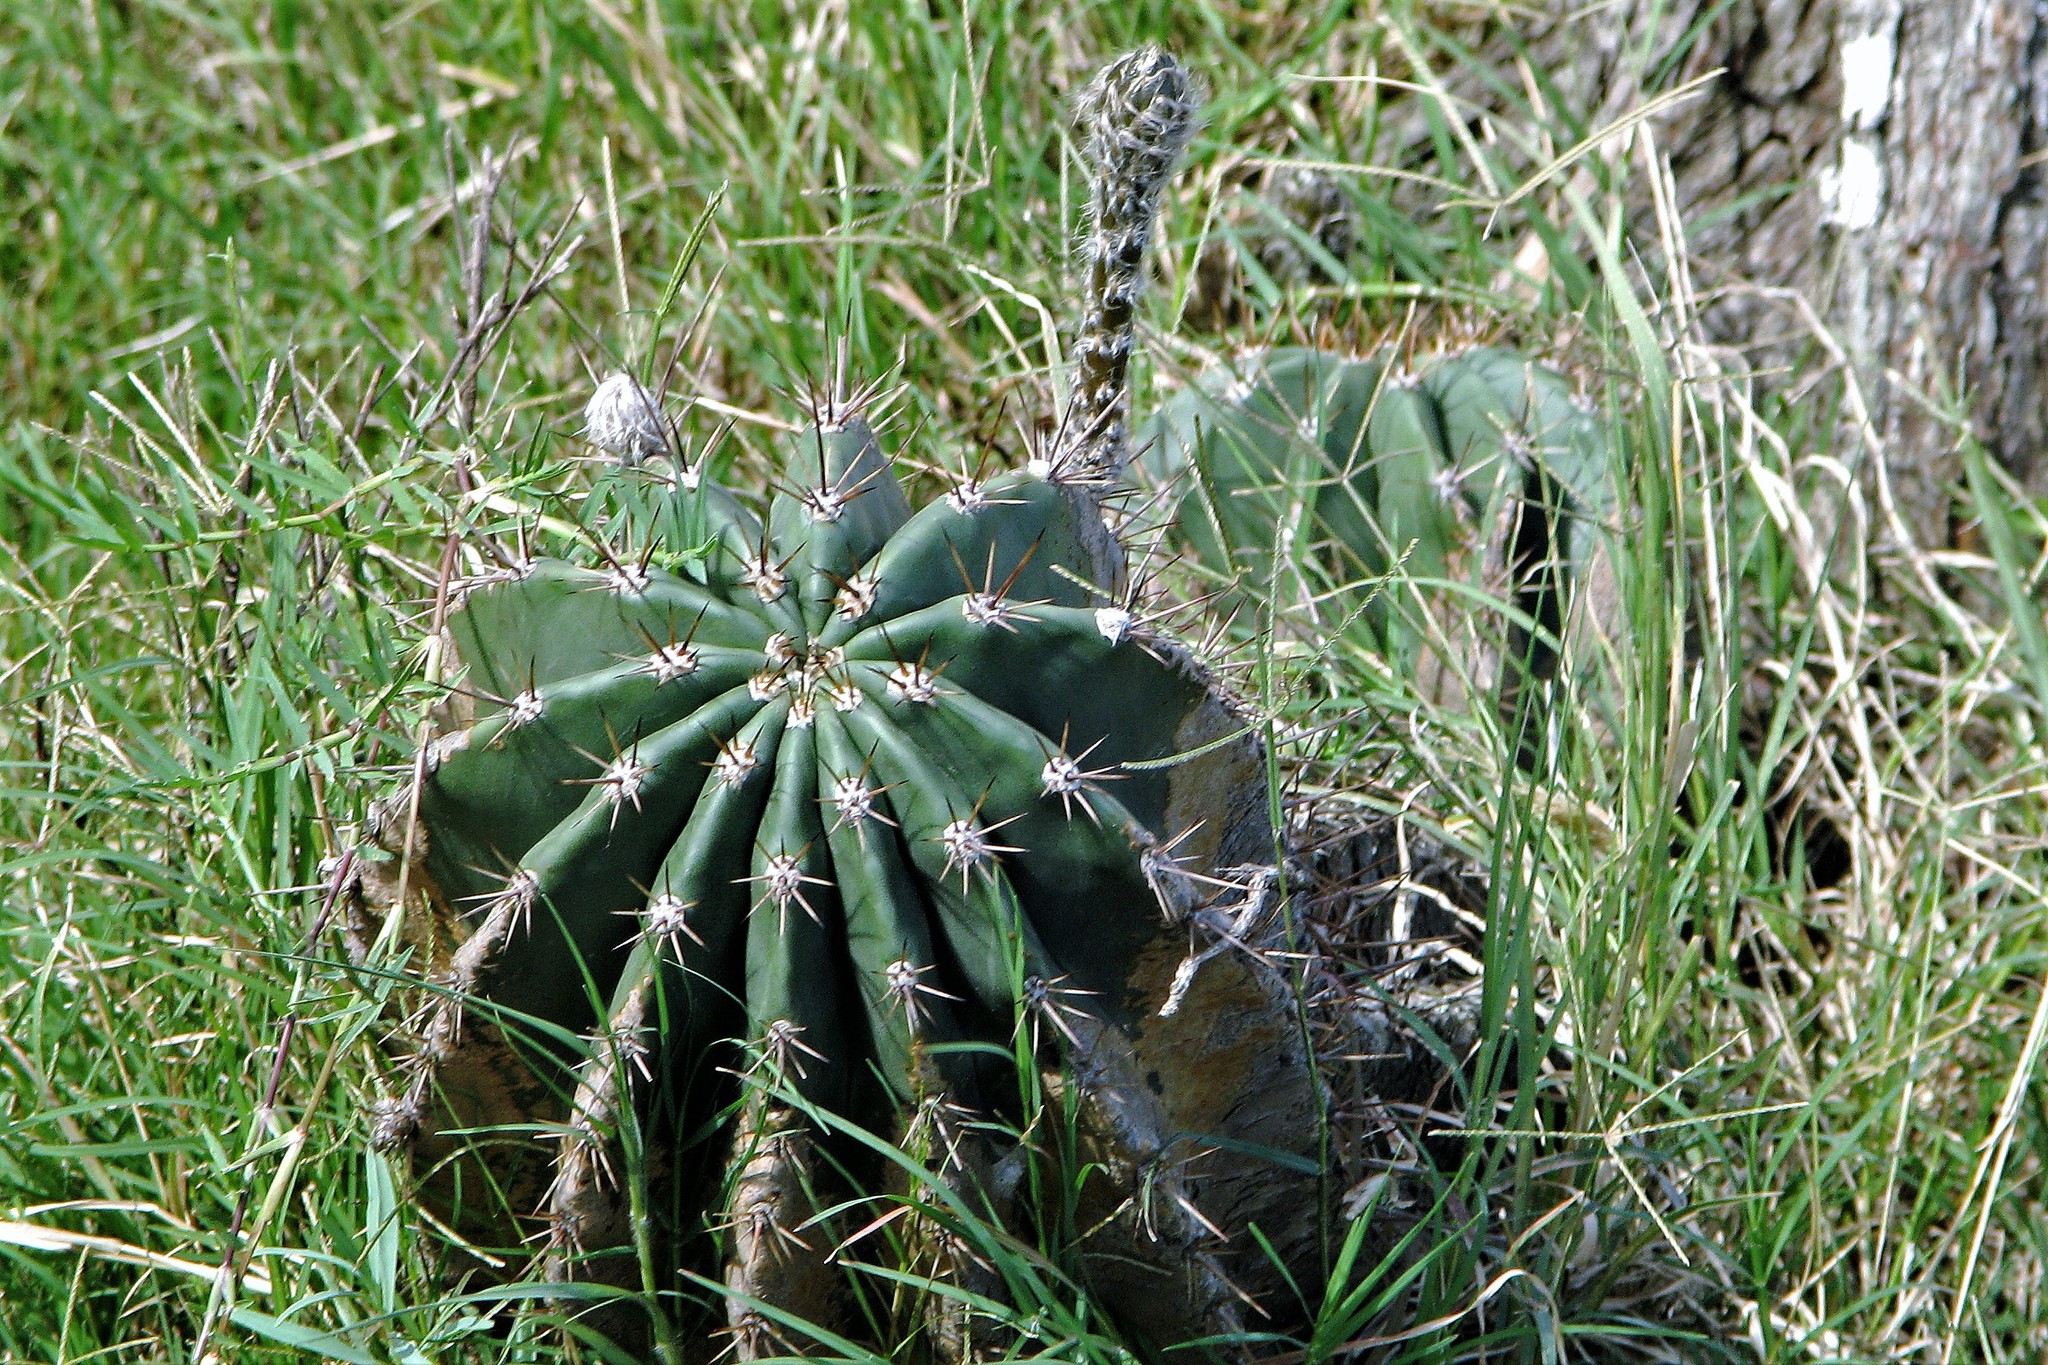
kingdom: Plantae
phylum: Tracheophyta
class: Magnoliopsida
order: Caryophyllales
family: Cactaceae
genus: Acanthocalycium
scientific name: Acanthocalycium rhodotrichum
